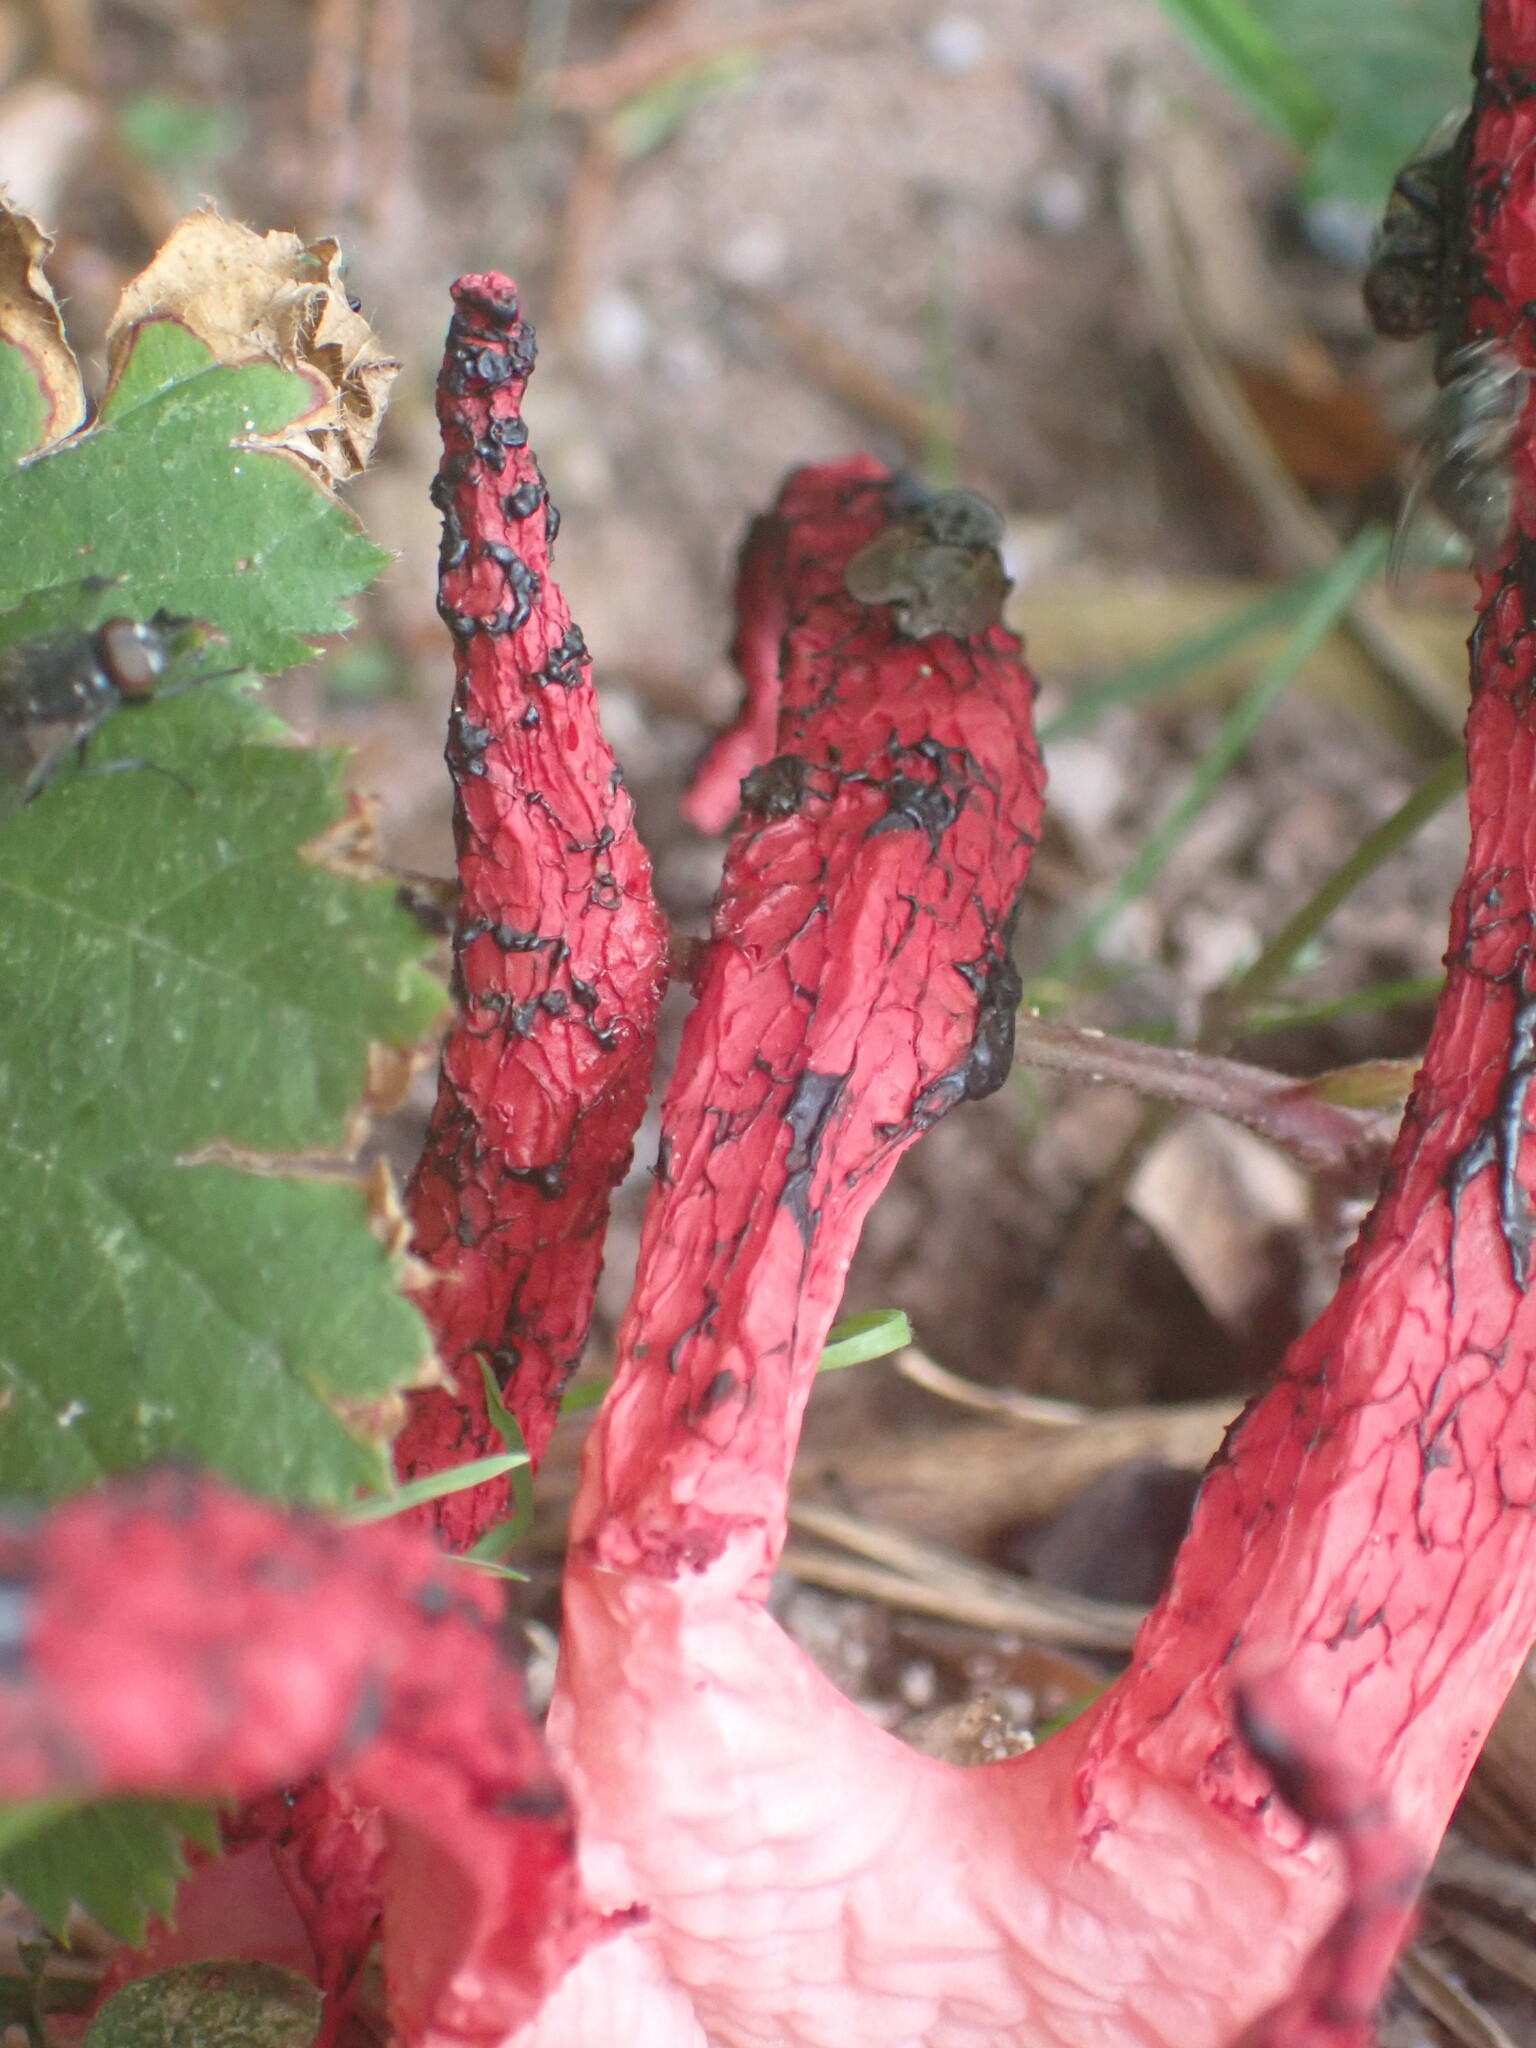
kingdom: Fungi
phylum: Basidiomycota
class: Agaricomycetes
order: Phallales
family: Phallaceae
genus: Clathrus
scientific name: Clathrus archeri
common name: Devil's fingers
